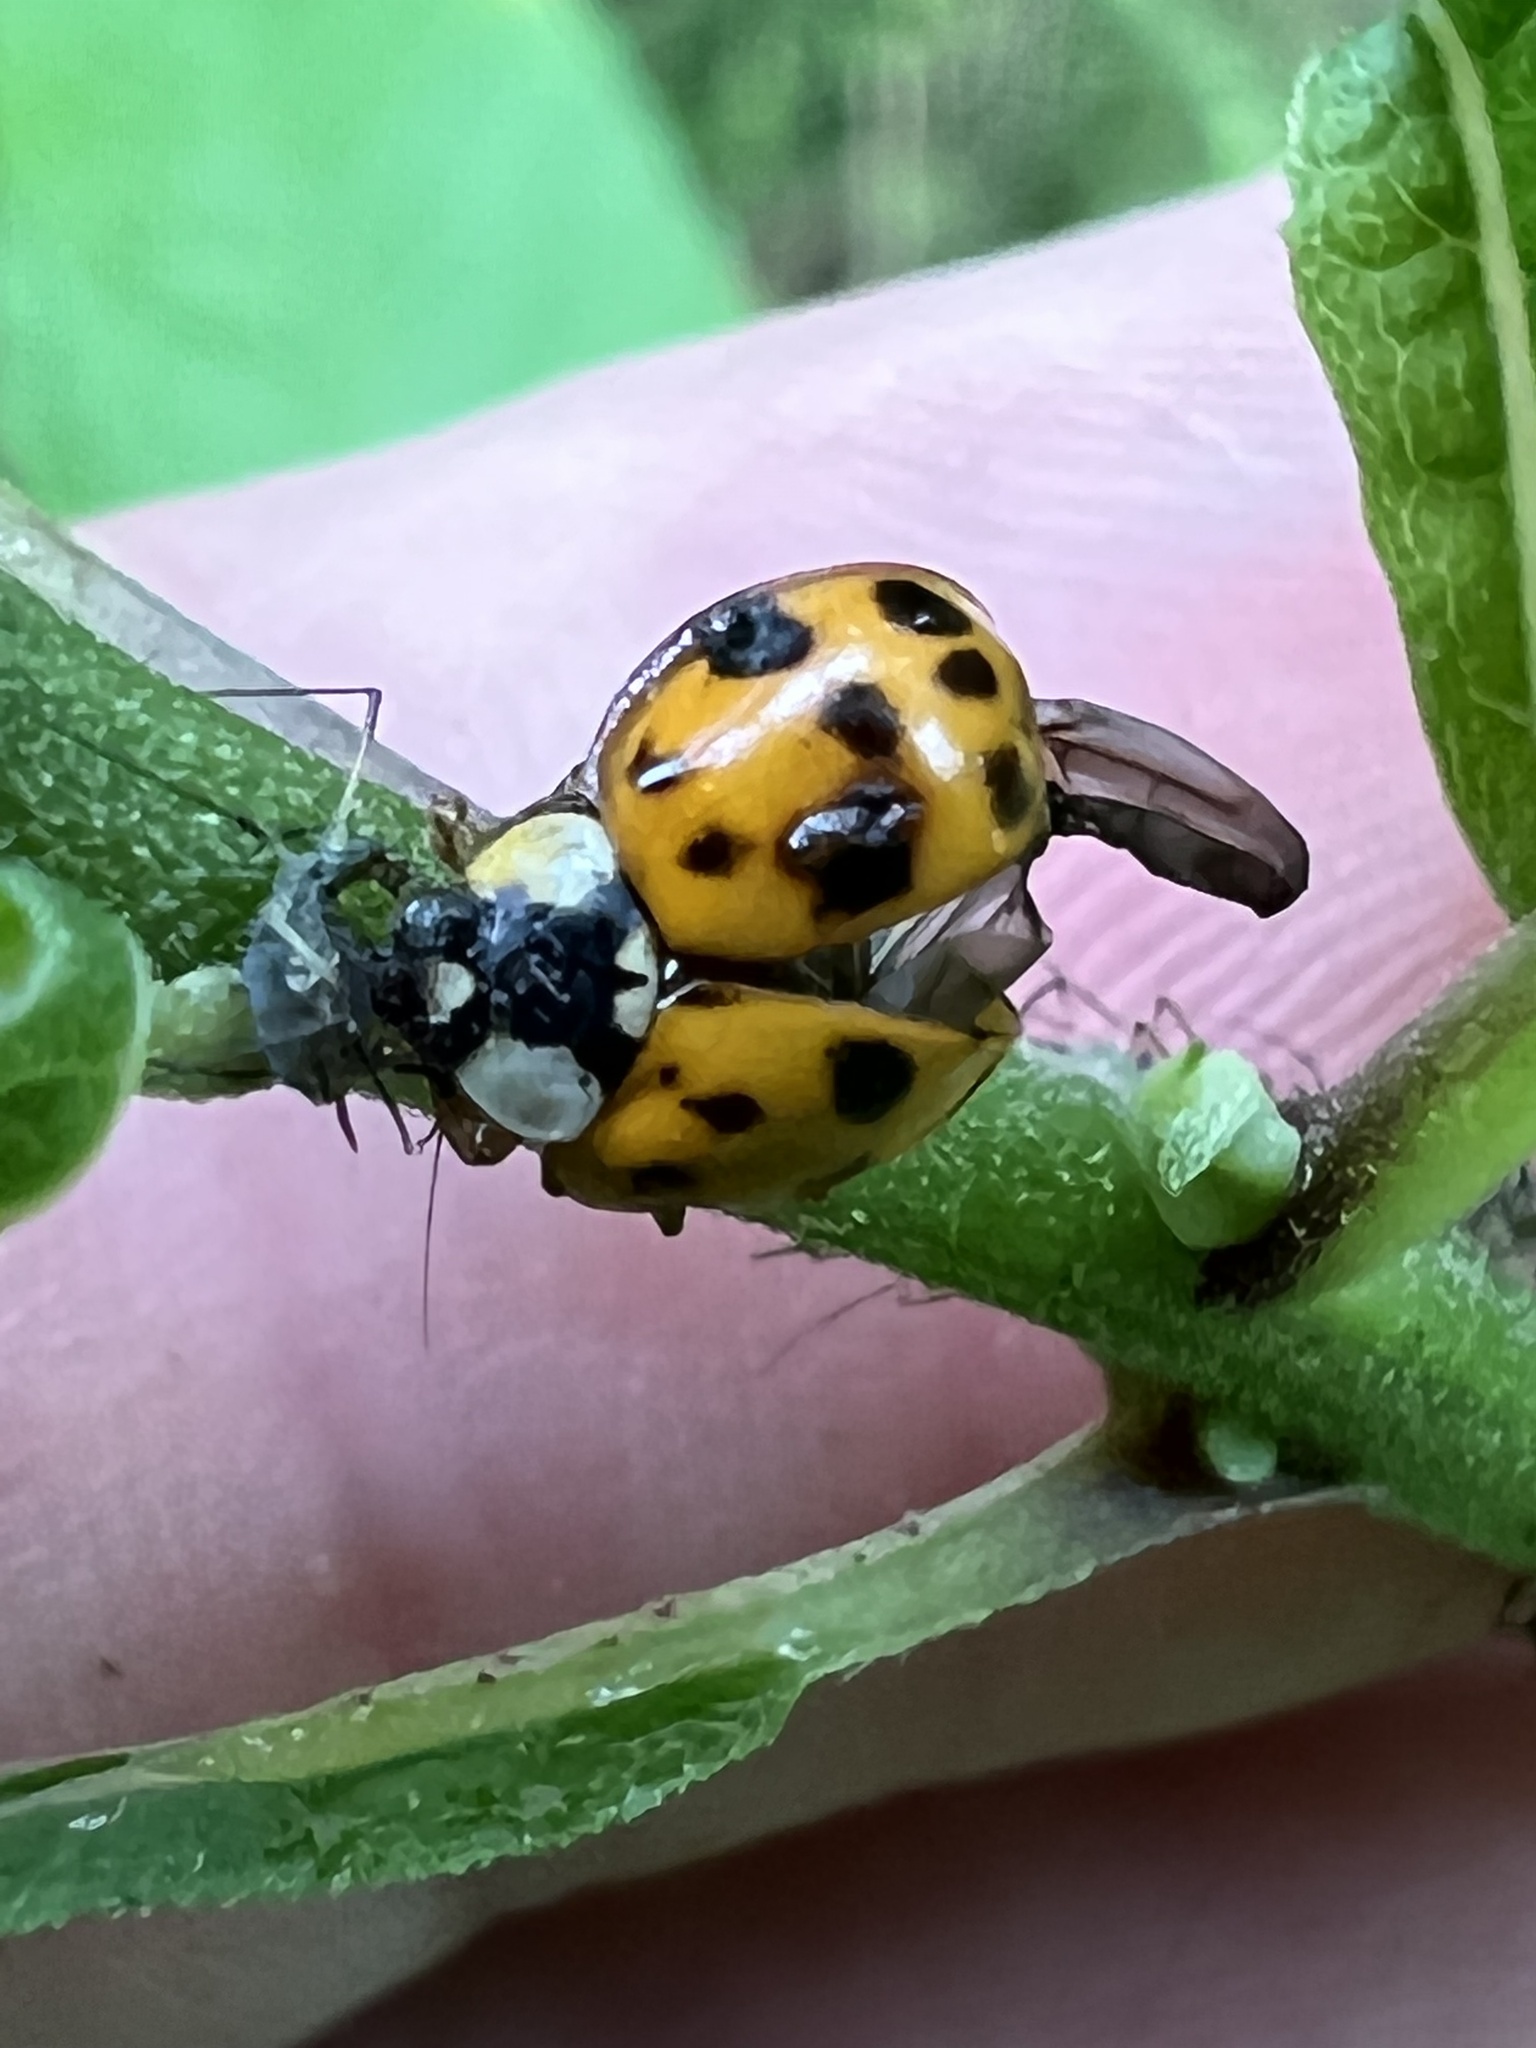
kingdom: Animalia
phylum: Arthropoda
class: Insecta
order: Coleoptera
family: Coccinellidae
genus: Harmonia
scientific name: Harmonia axyridis
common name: Harlequin ladybird
